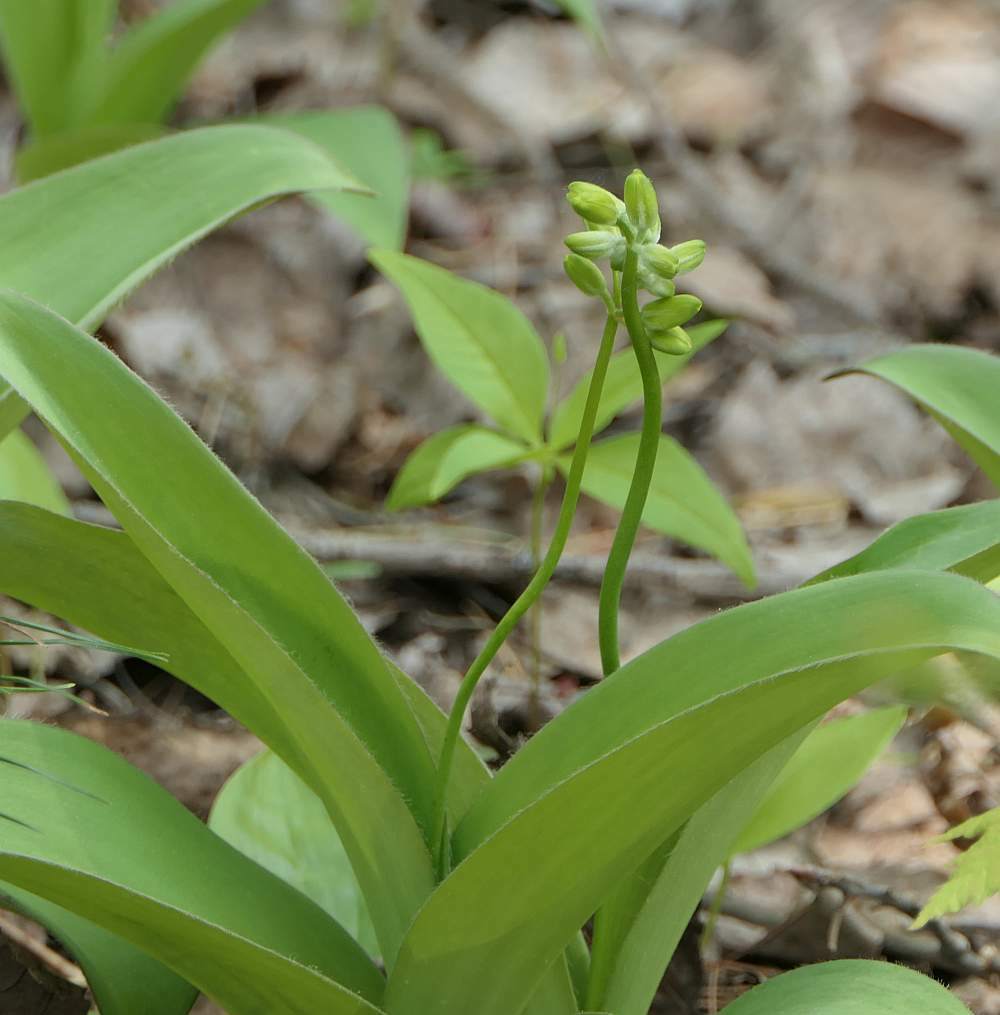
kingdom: Plantae
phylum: Tracheophyta
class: Liliopsida
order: Liliales
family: Liliaceae
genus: Clintonia
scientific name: Clintonia borealis
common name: Yellow clintonia
